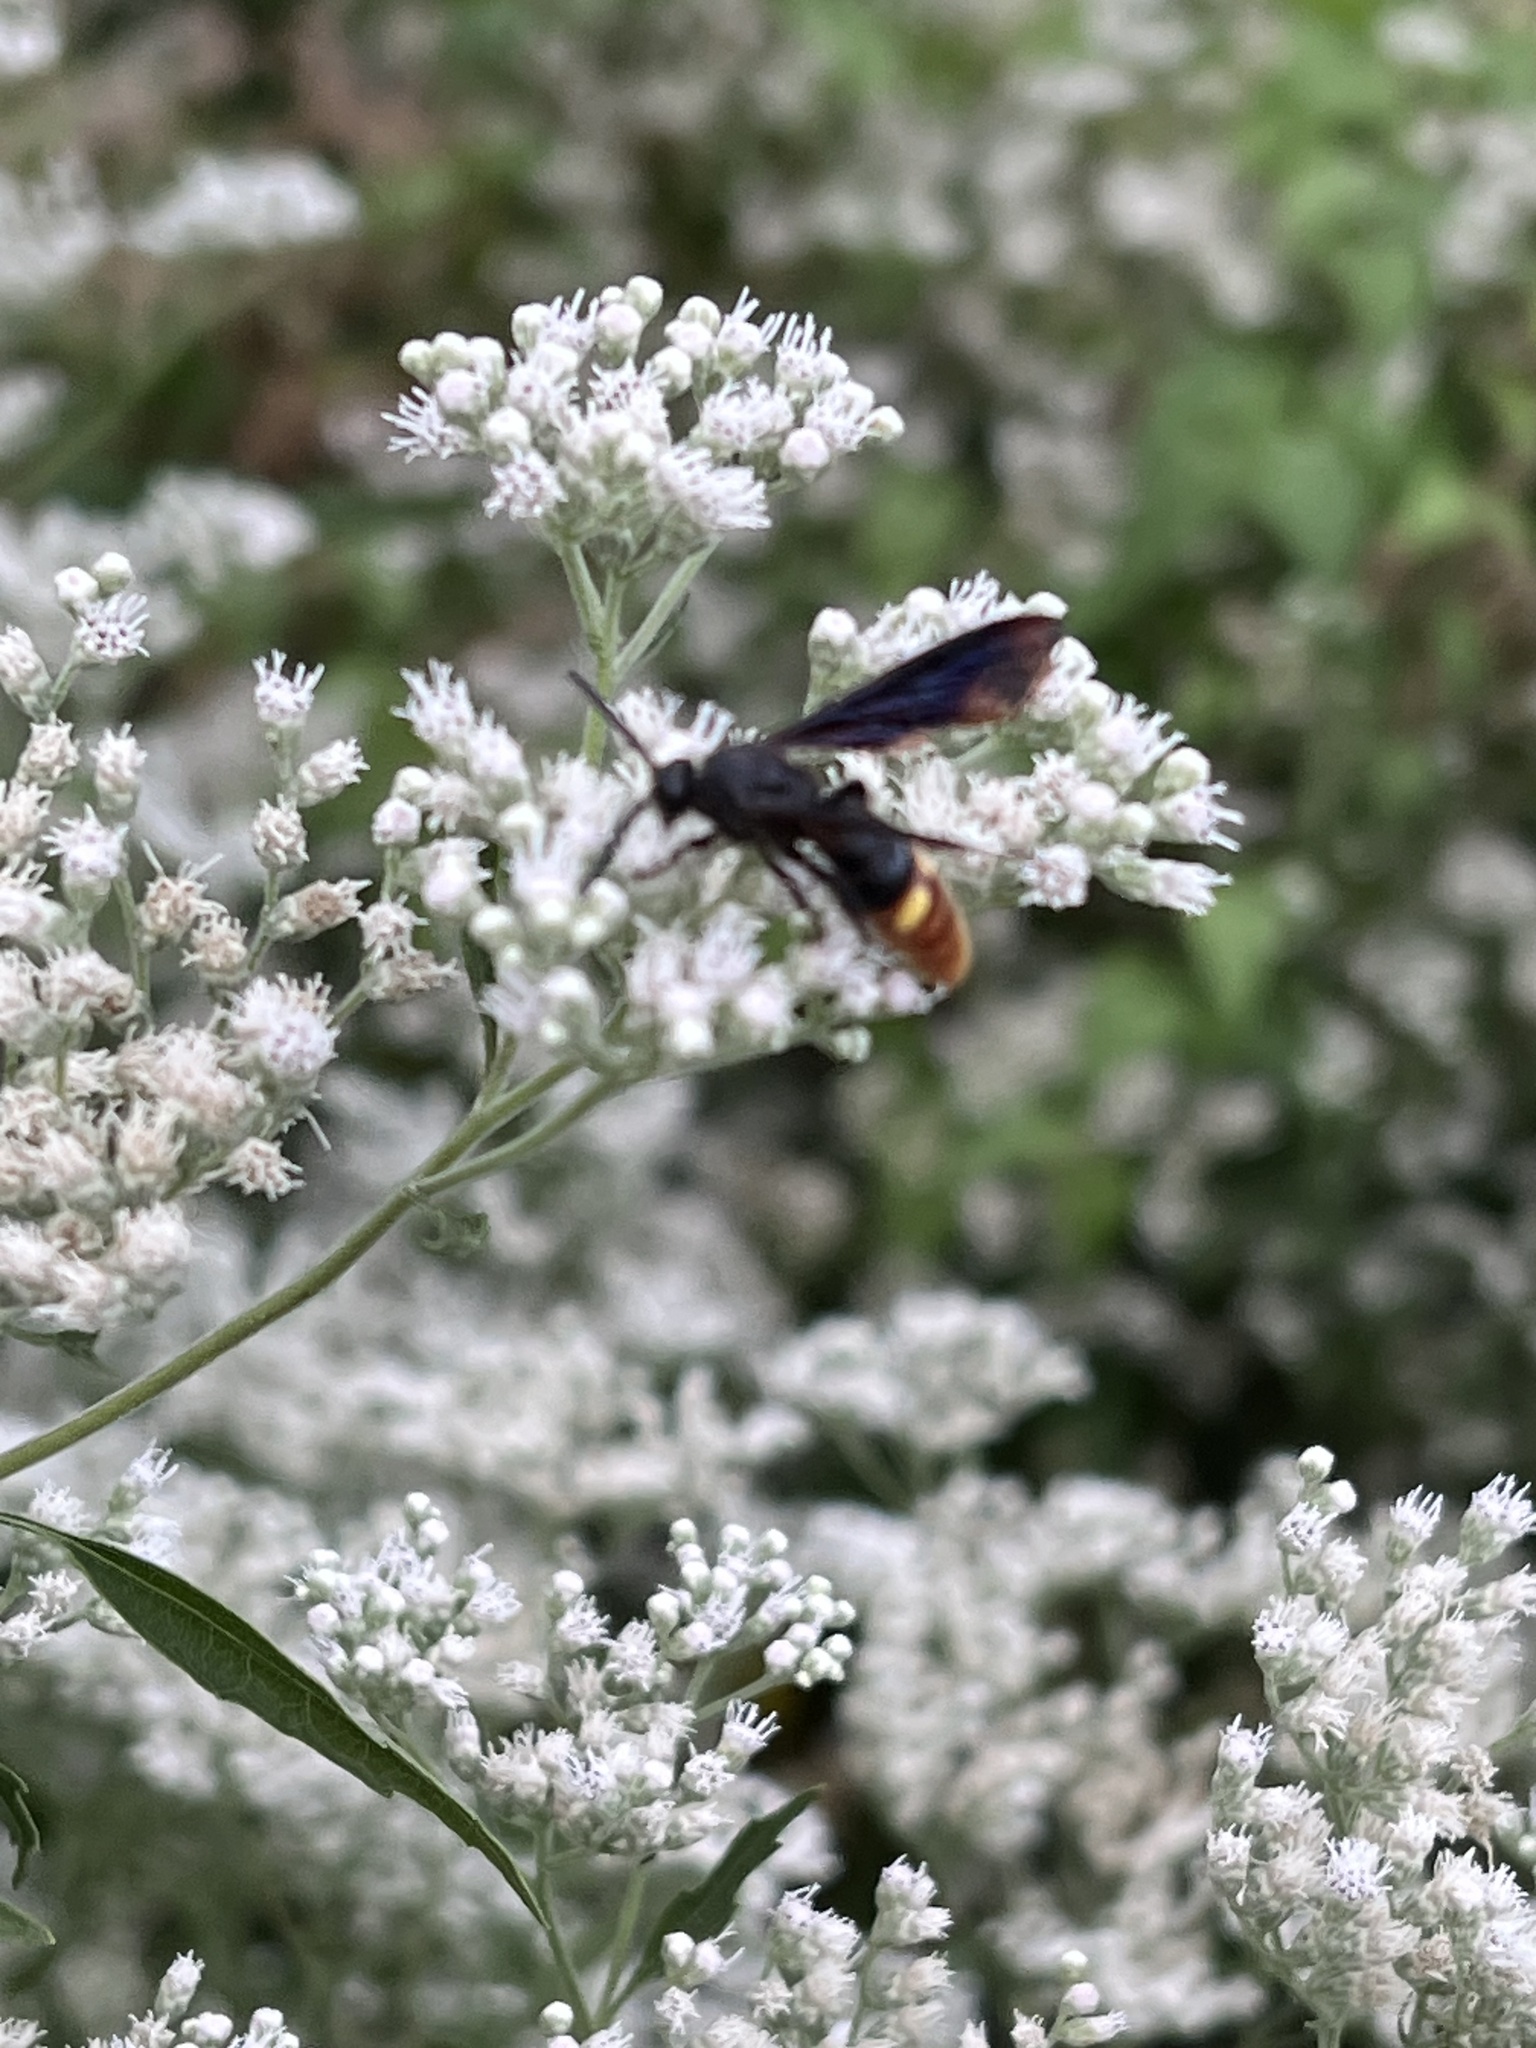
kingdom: Animalia
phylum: Arthropoda
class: Insecta
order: Hymenoptera
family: Scoliidae
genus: Scolia
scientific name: Scolia dubia
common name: Blue-winged scoliid wasp
